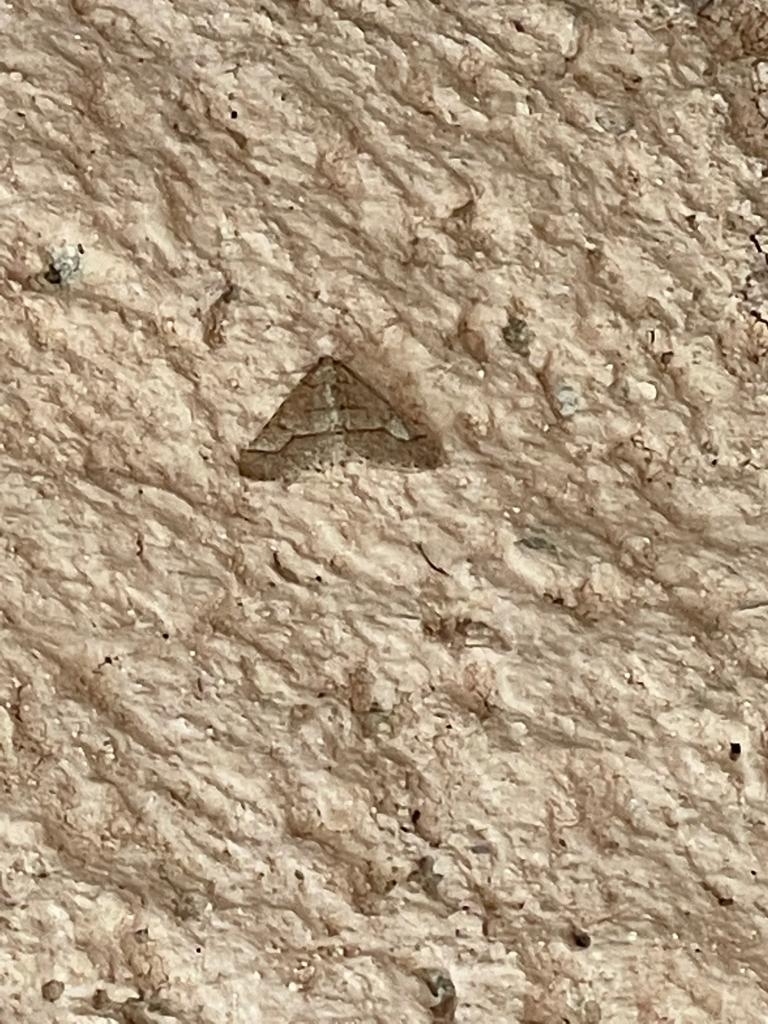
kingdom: Animalia
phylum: Arthropoda
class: Insecta
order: Lepidoptera
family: Geometridae
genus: Agriopis
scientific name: Agriopis marginaria
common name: Dotted border
